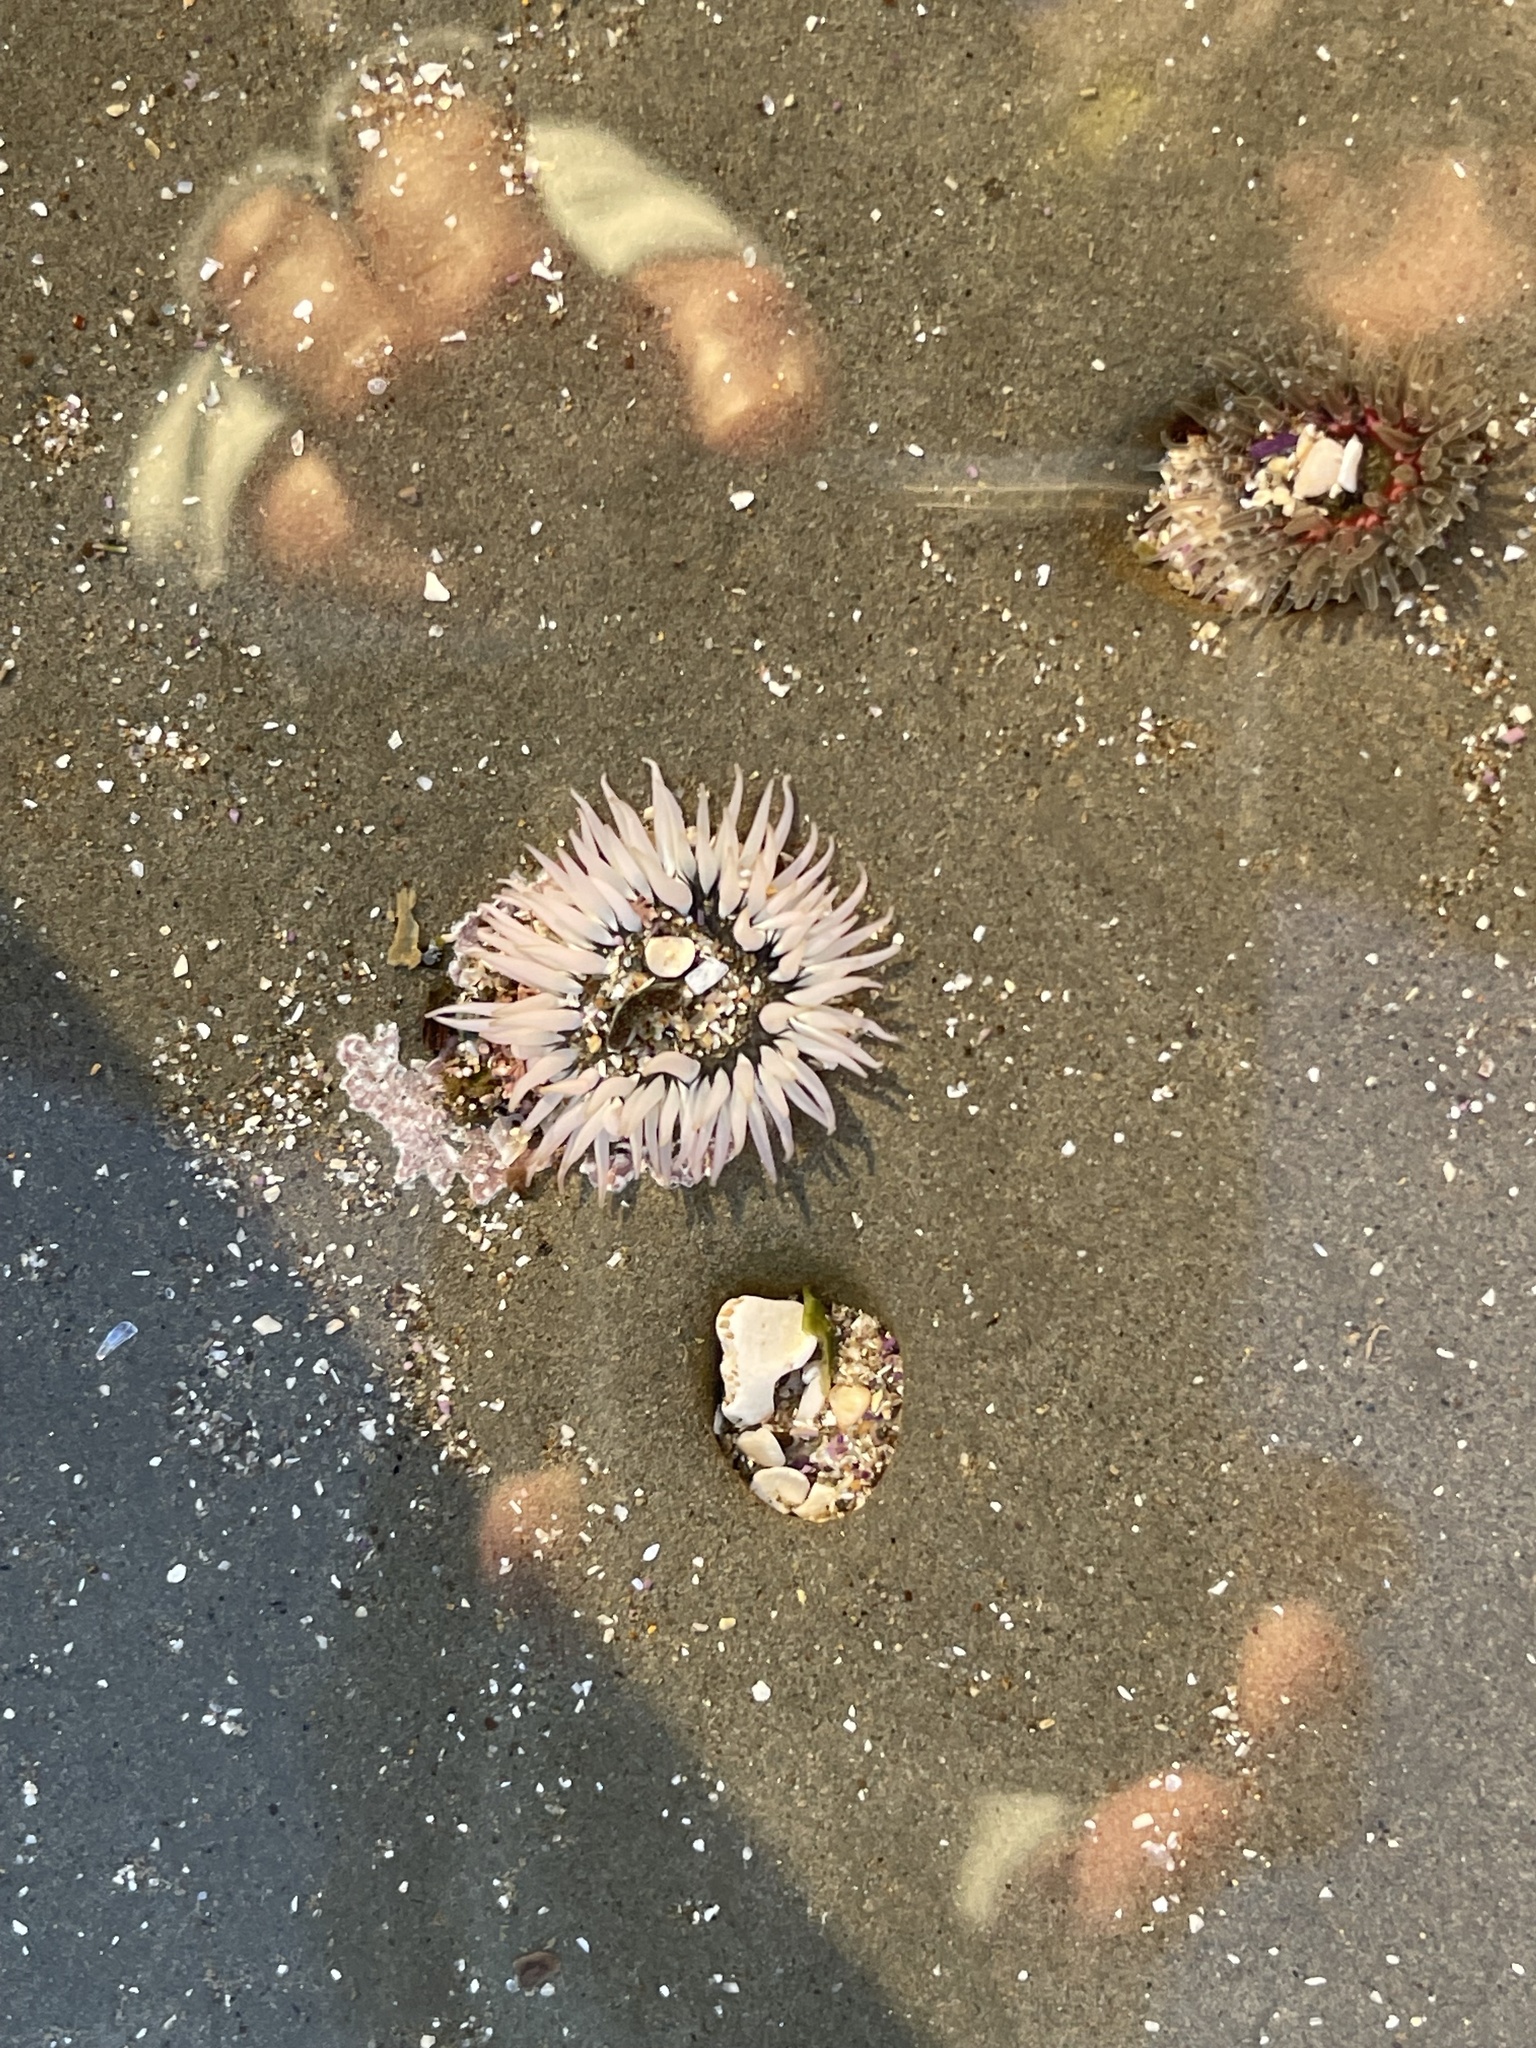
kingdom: Animalia
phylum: Cnidaria
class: Anthozoa
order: Actiniaria
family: Actiniidae
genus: Anthopleura
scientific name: Anthopleura artemisia
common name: Buried sea anemone
